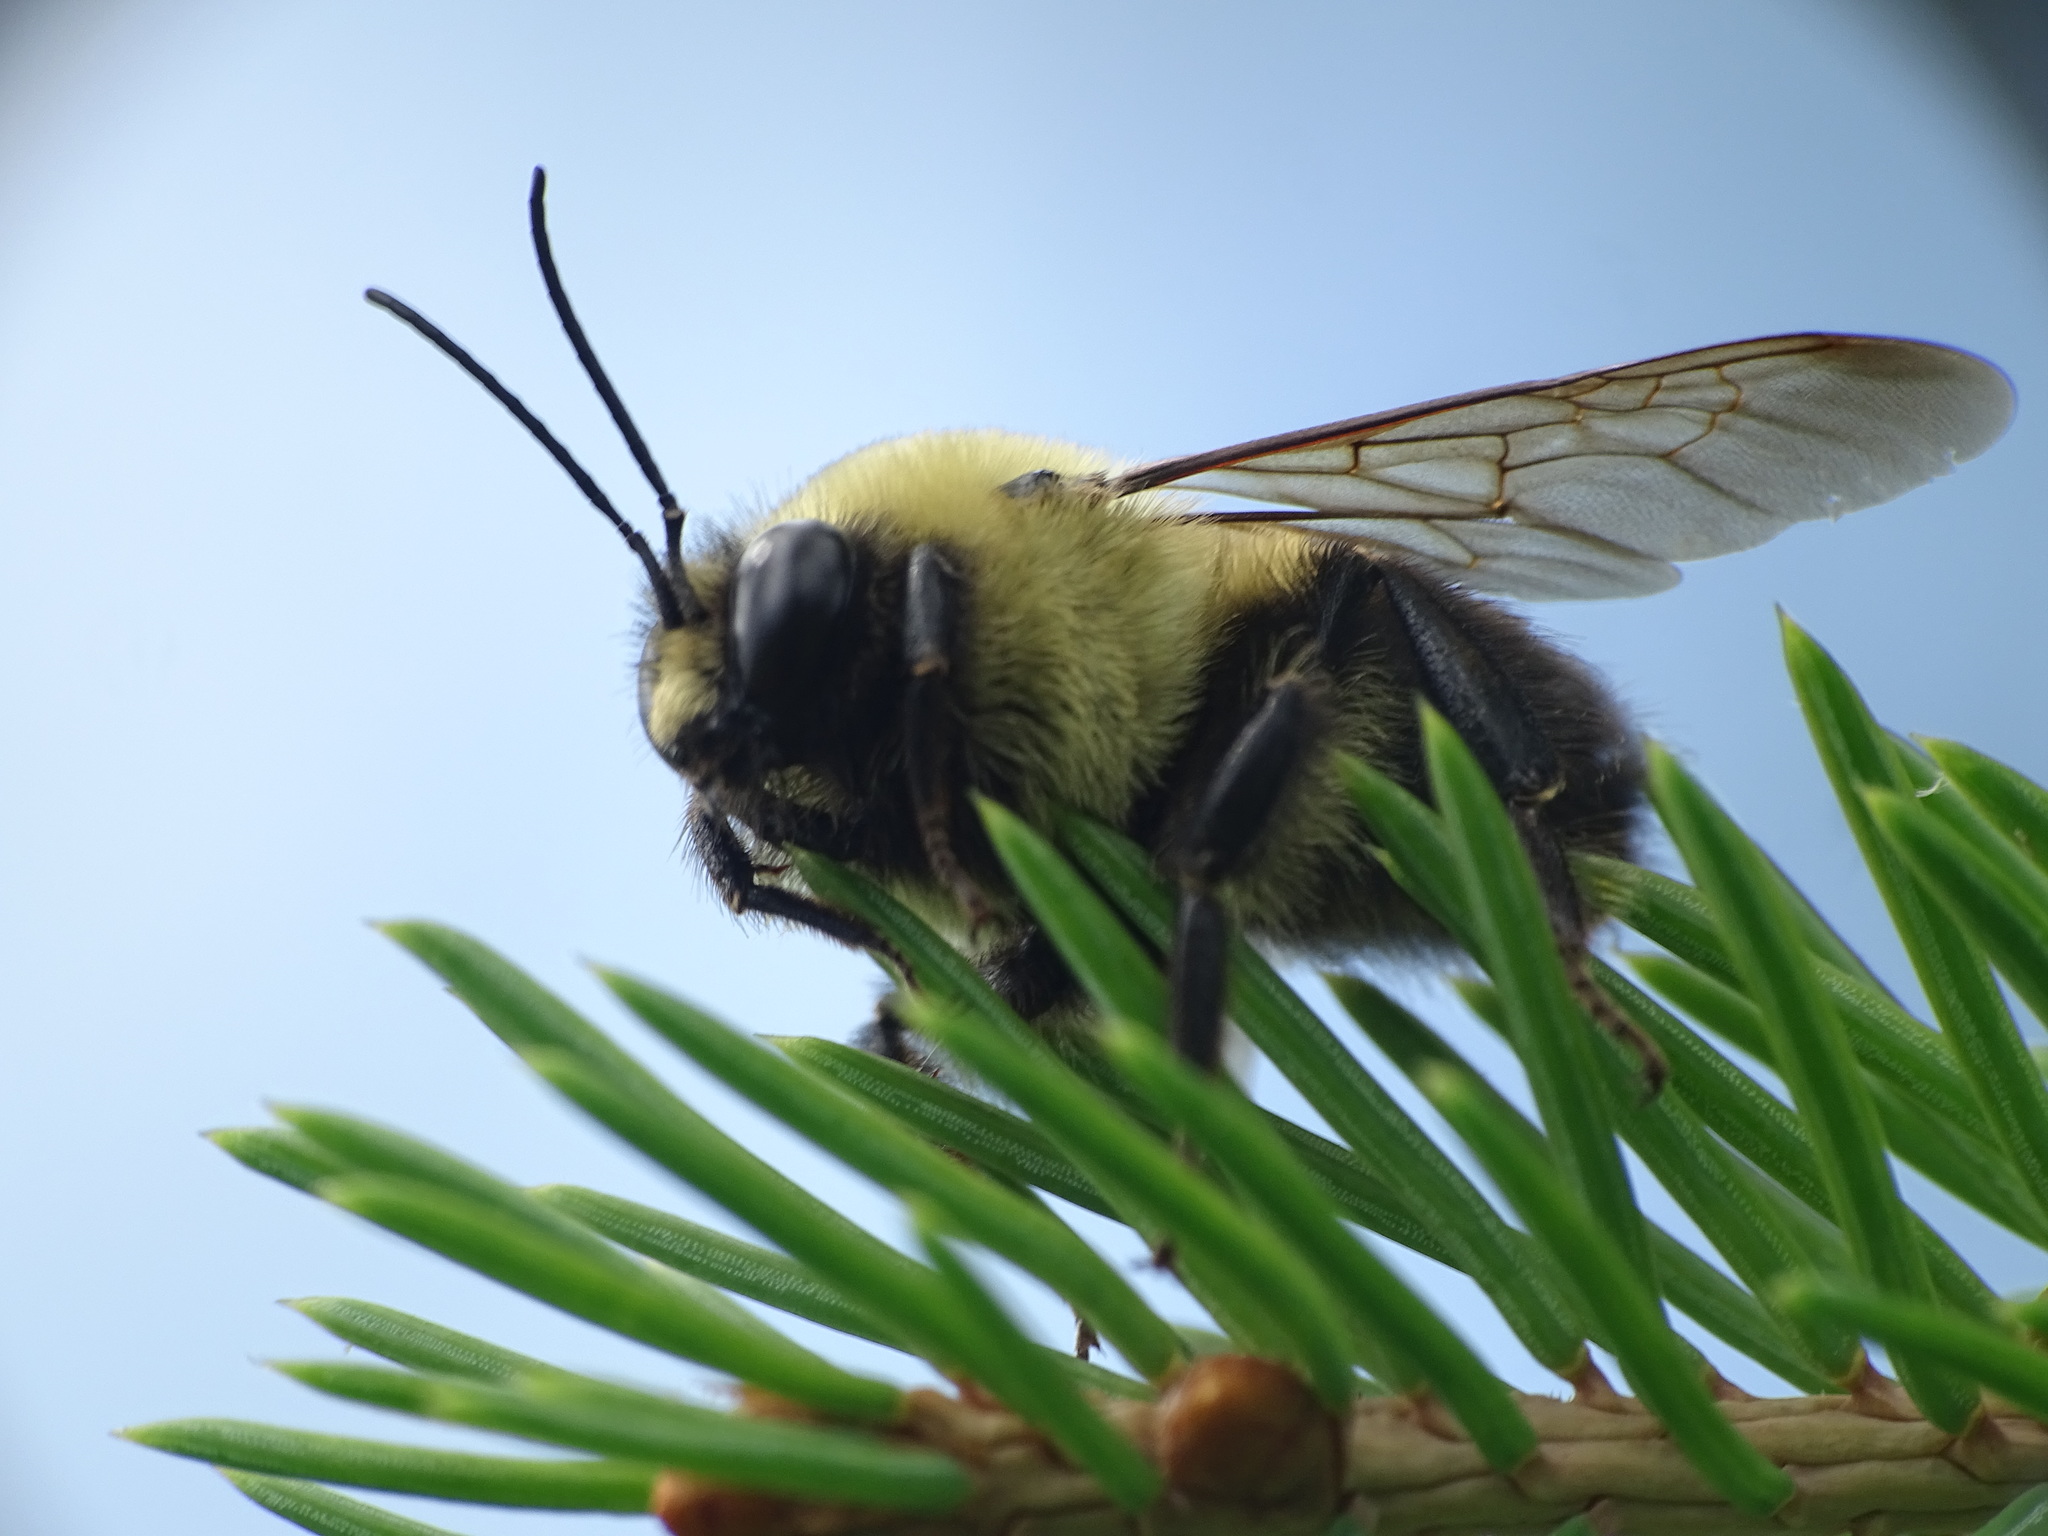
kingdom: Animalia
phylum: Arthropoda
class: Insecta
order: Hymenoptera
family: Apidae
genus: Bombus
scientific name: Bombus griseocollis
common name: Brown-belted bumble bee
